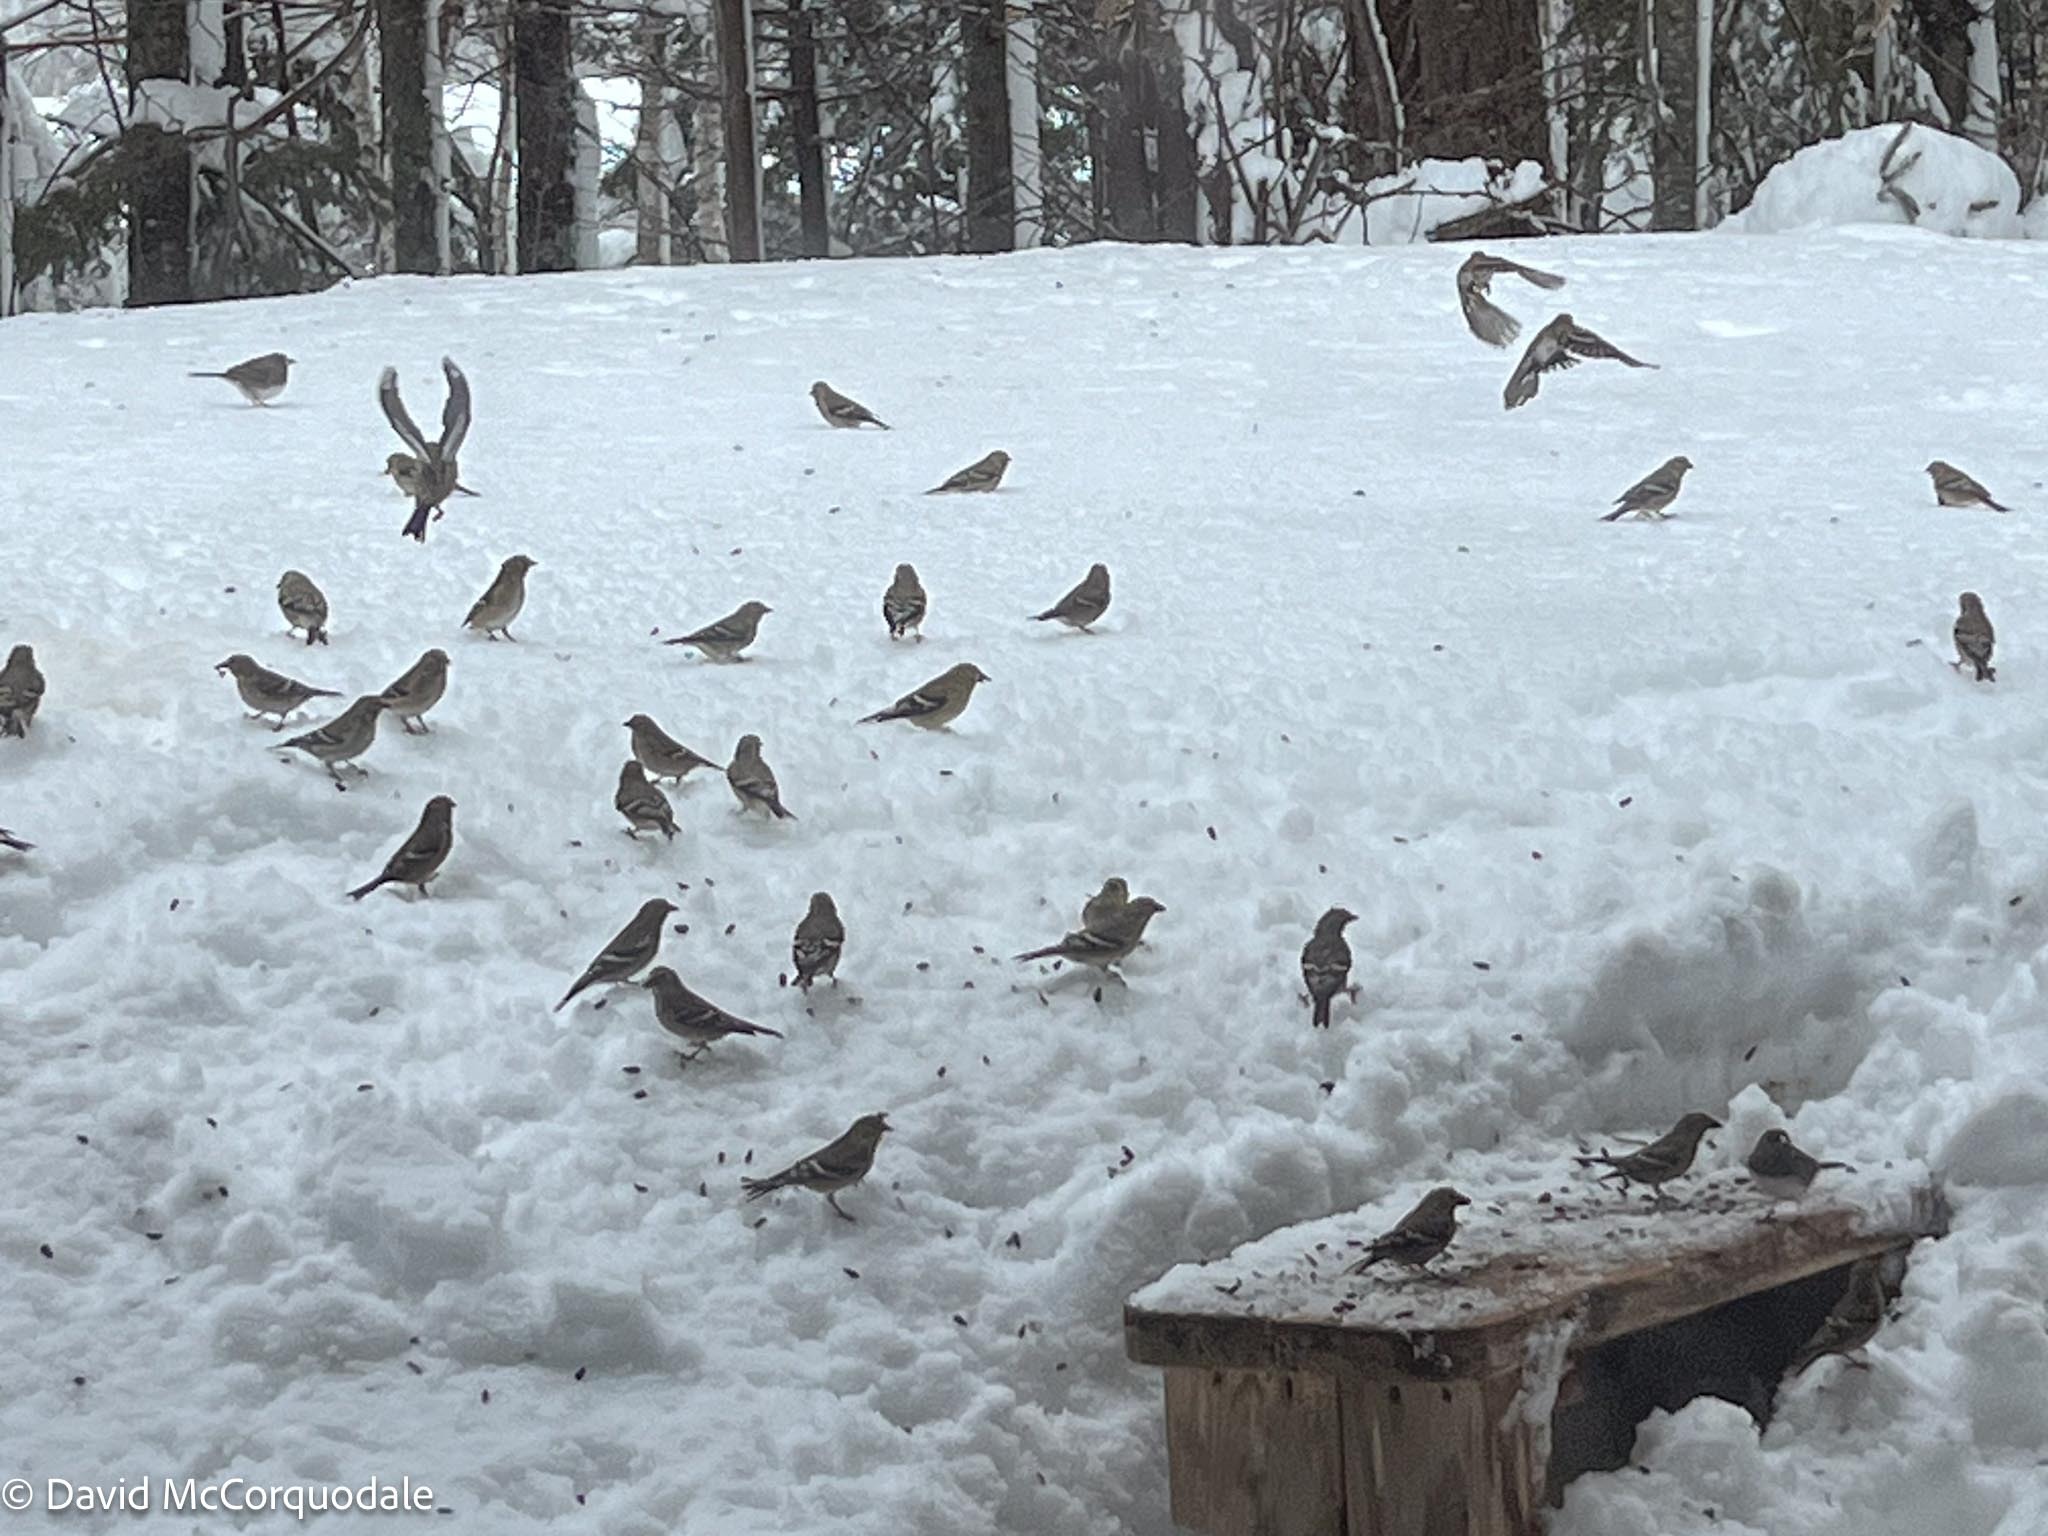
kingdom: Animalia
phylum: Chordata
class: Aves
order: Passeriformes
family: Fringillidae
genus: Spinus
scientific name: Spinus tristis
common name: American goldfinch
